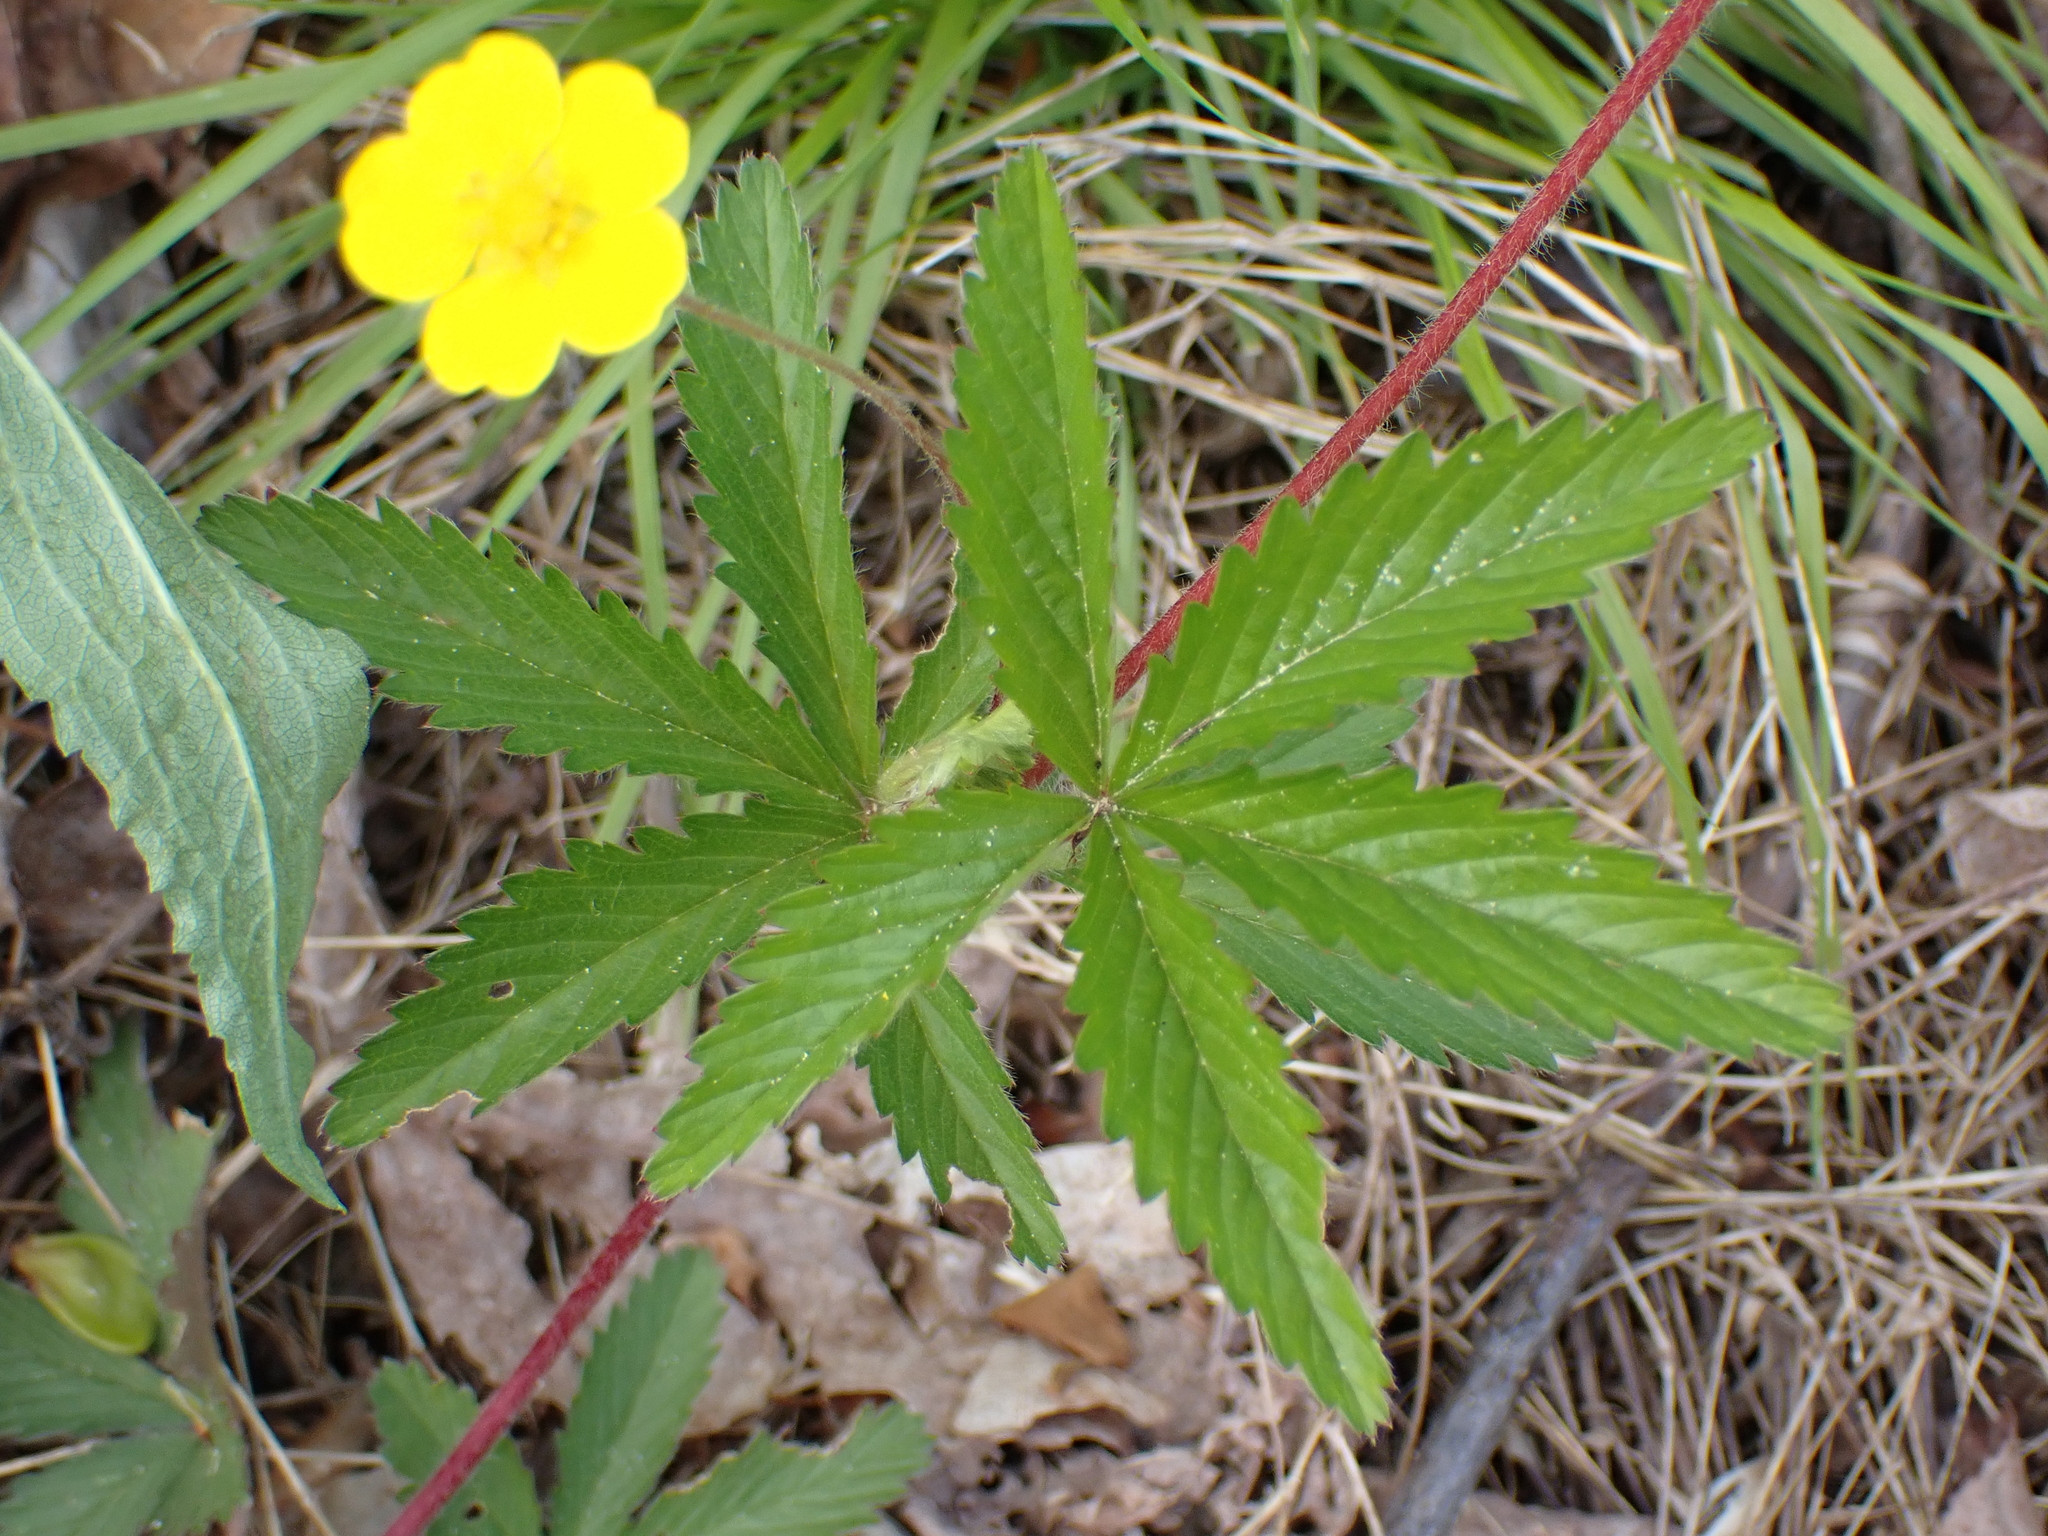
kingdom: Plantae
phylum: Tracheophyta
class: Magnoliopsida
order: Rosales
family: Rosaceae
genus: Potentilla
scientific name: Potentilla simplex
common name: Old field cinquefoil
